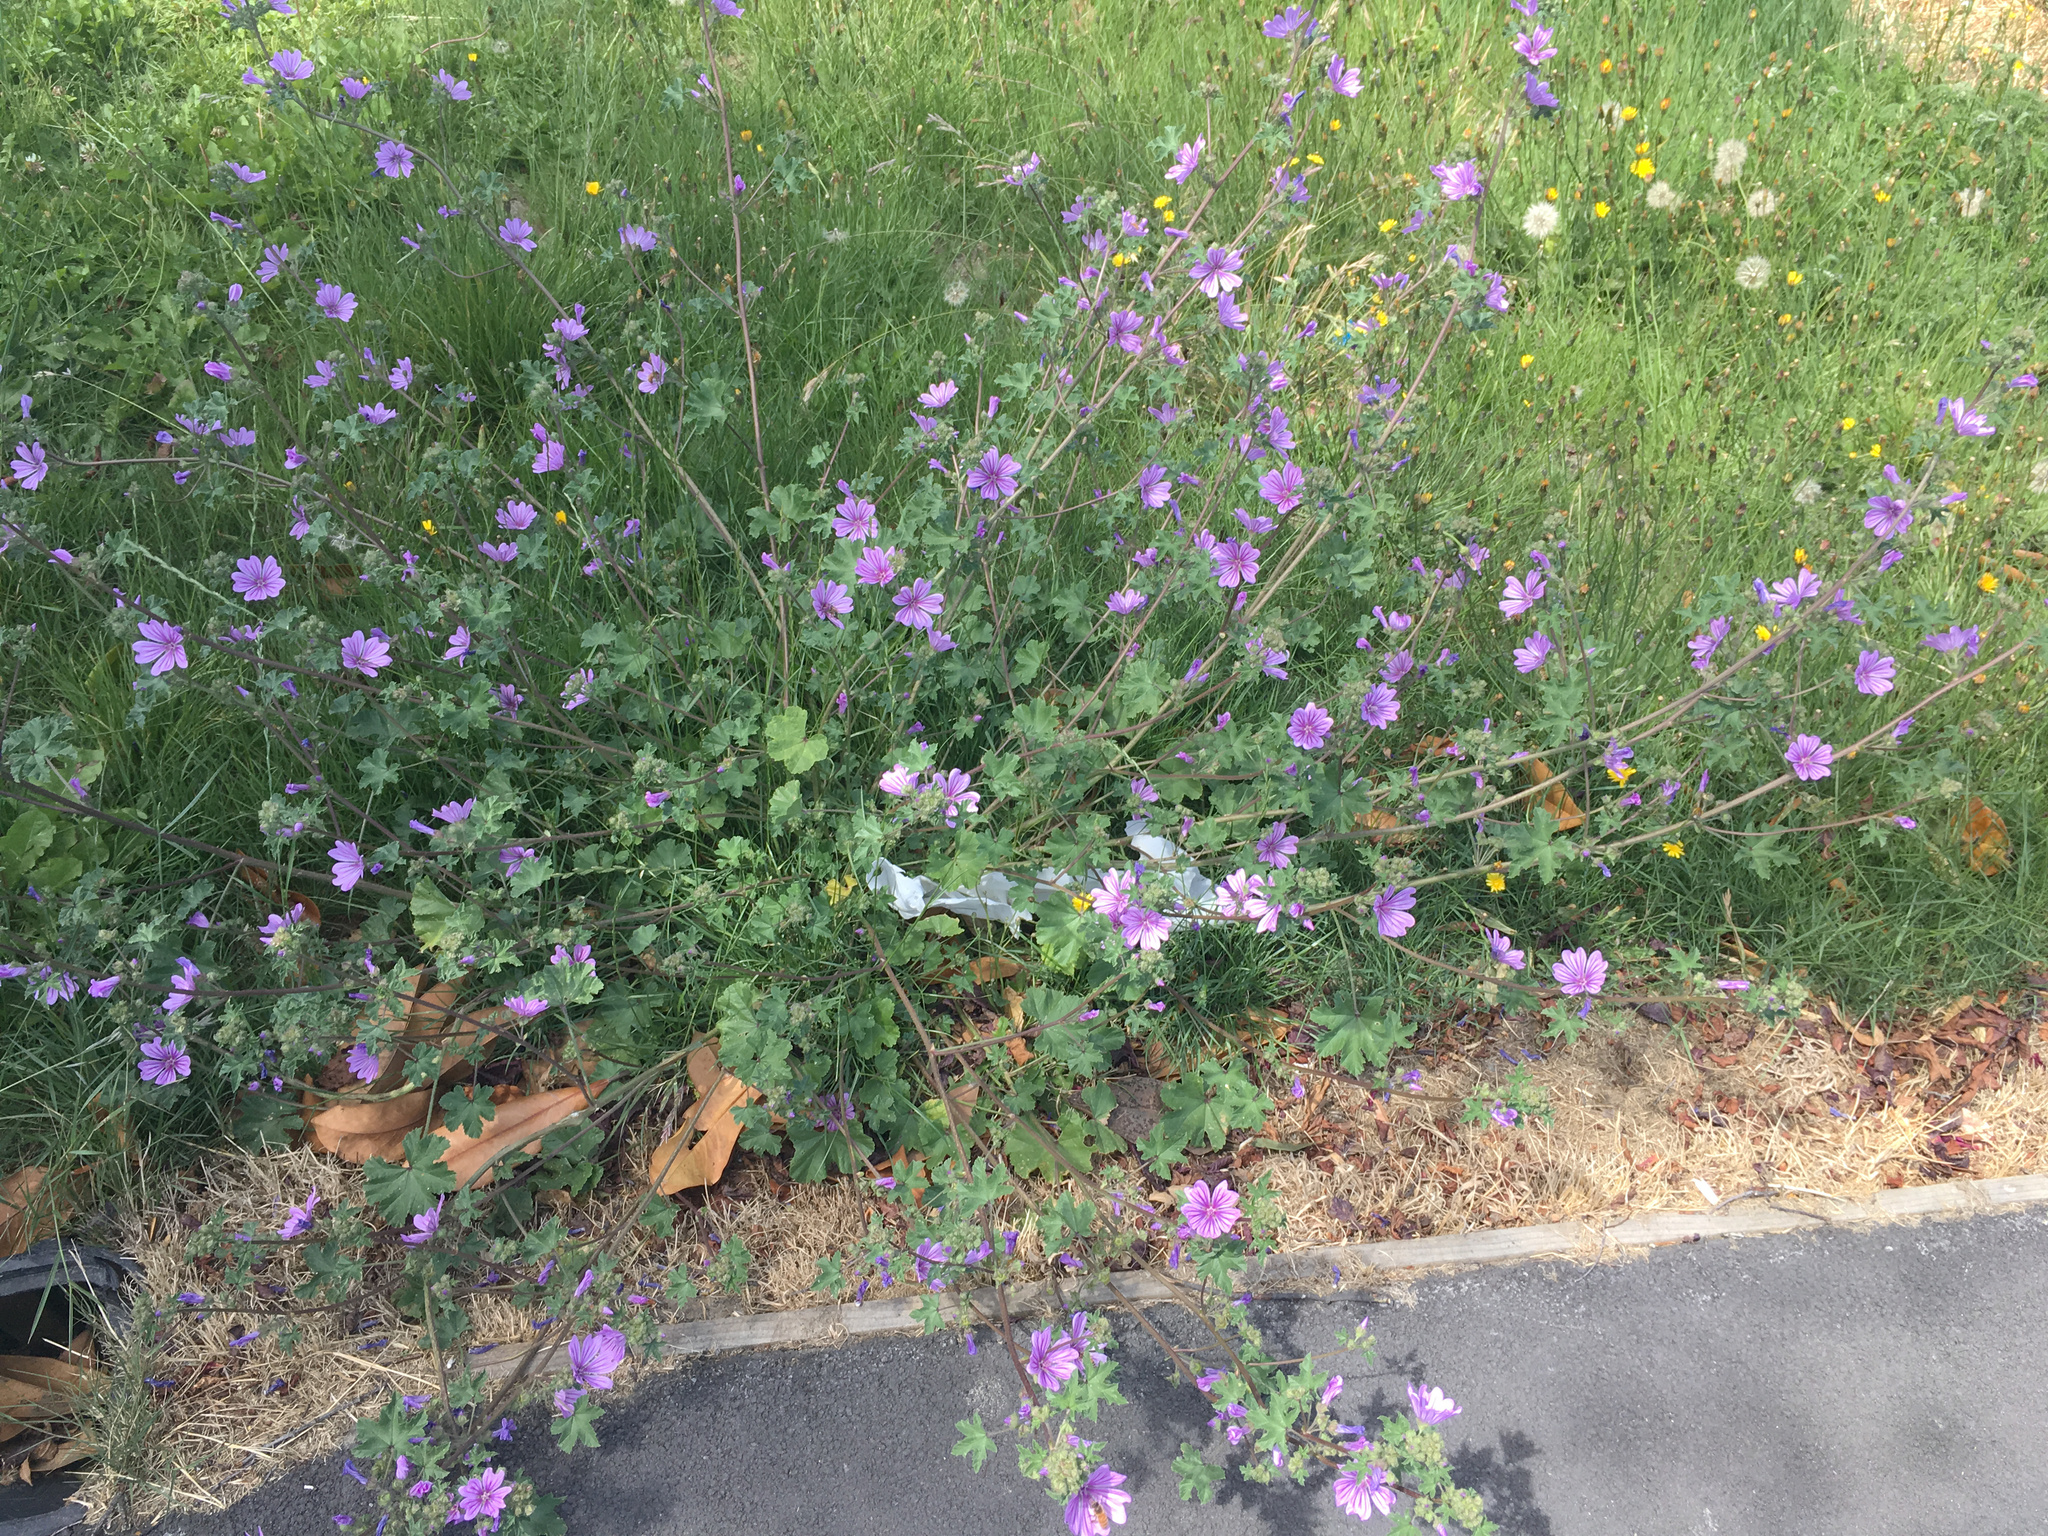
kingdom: Plantae
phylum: Tracheophyta
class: Magnoliopsida
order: Malvales
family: Malvaceae
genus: Malva
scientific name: Malva sylvestris
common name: Common mallow
